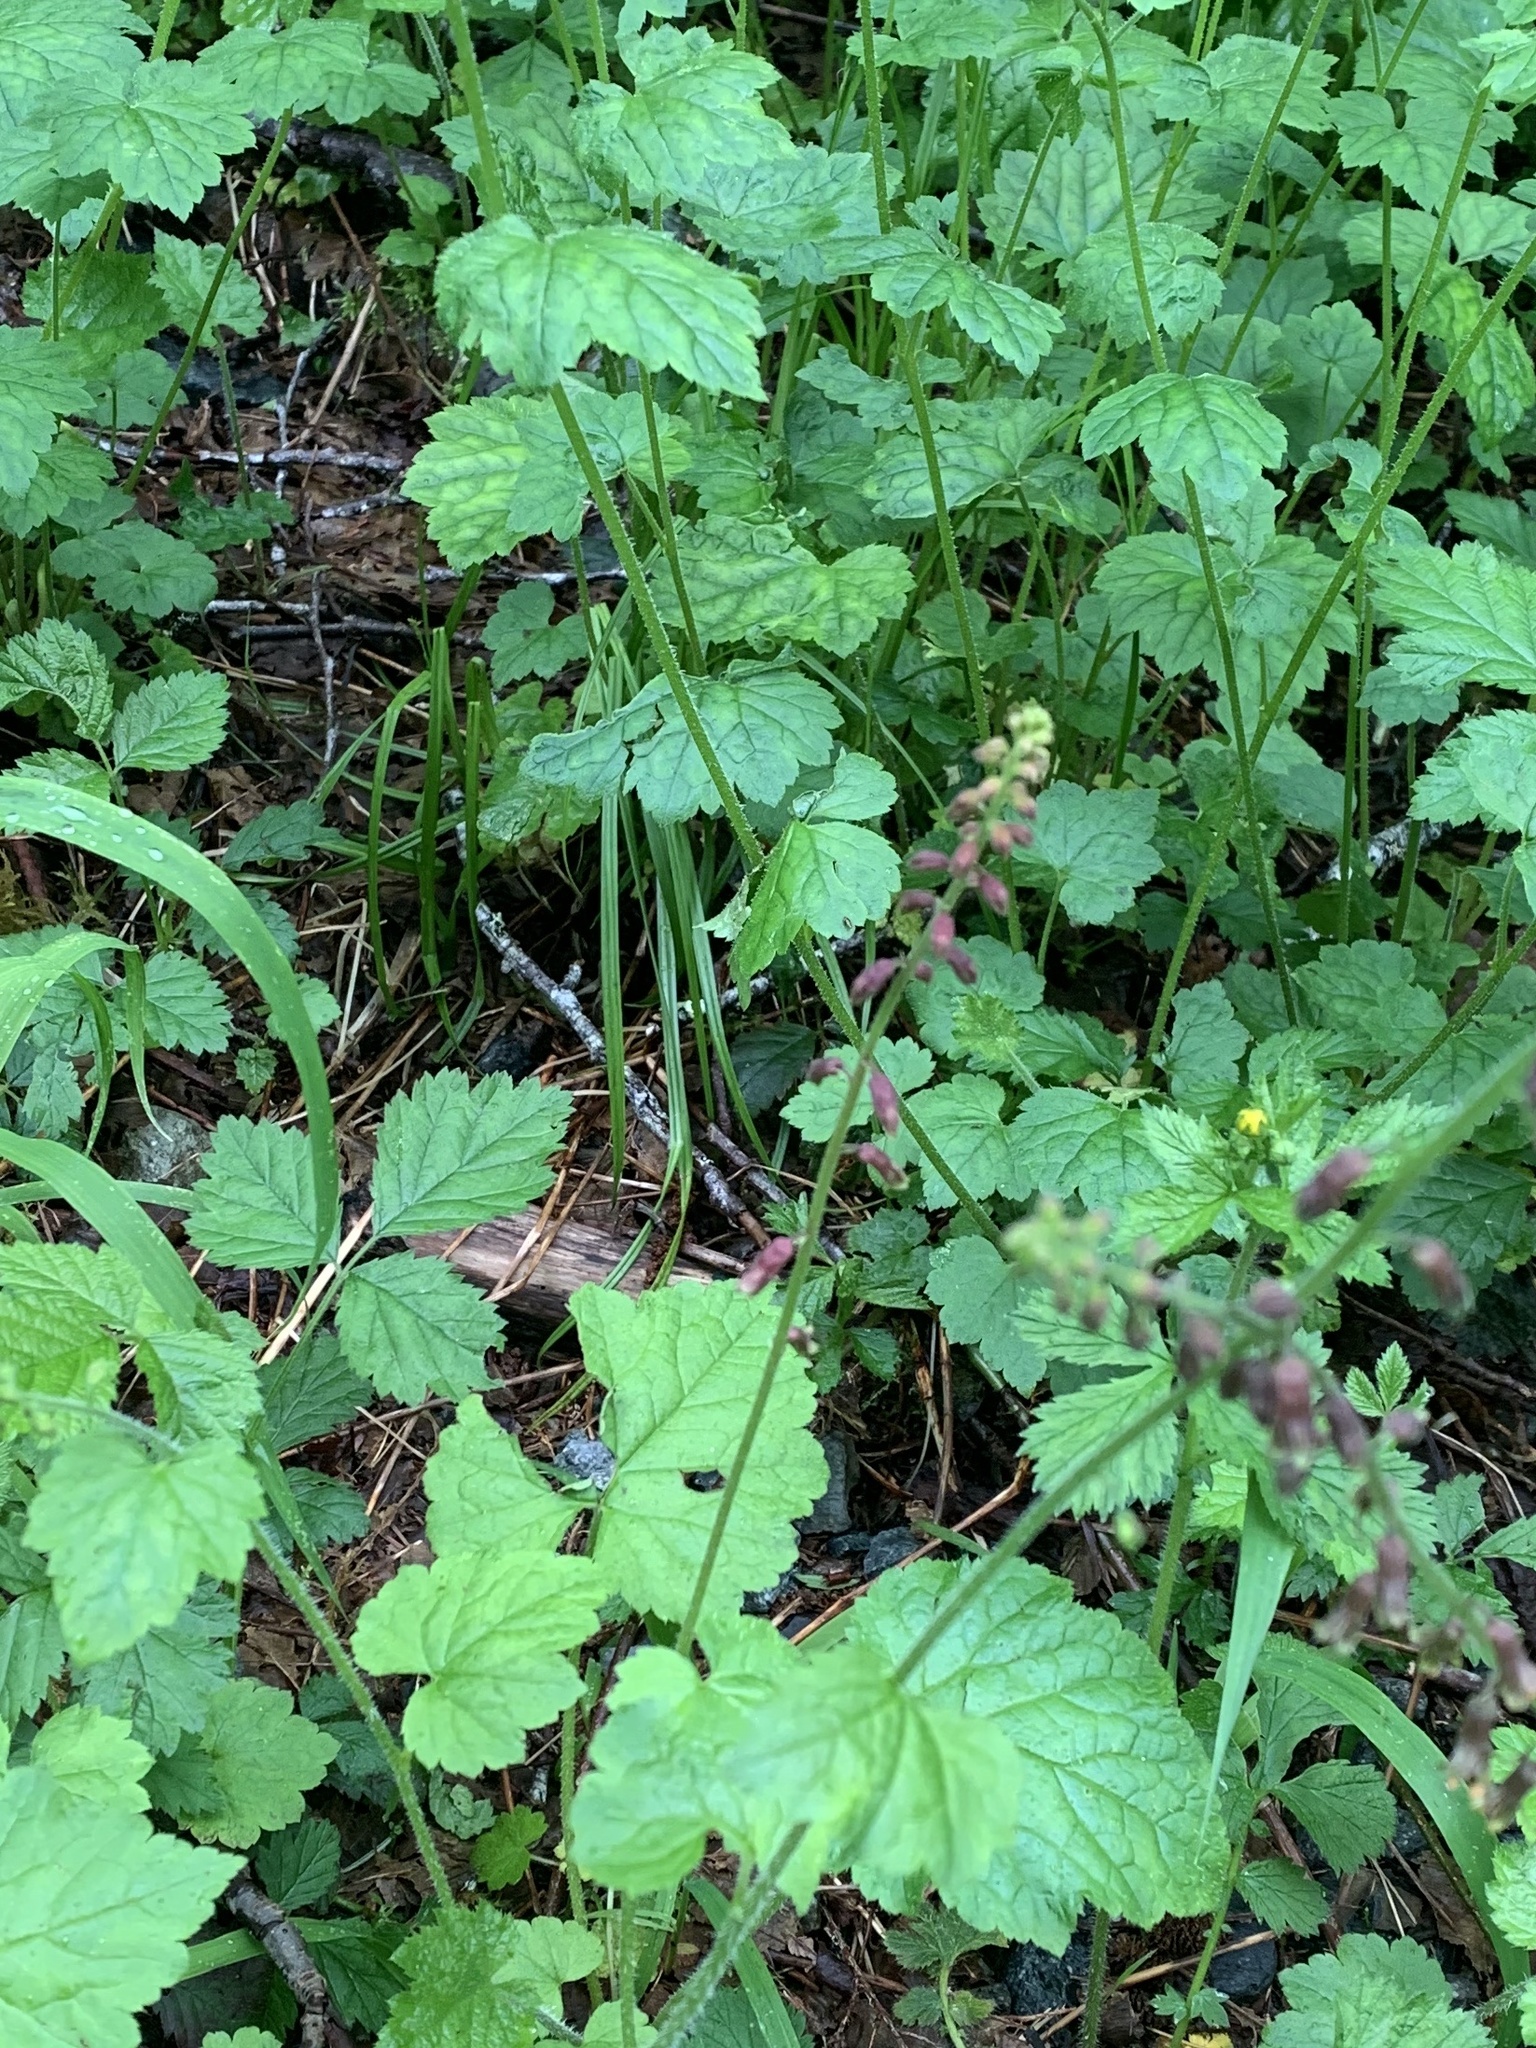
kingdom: Plantae
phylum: Tracheophyta
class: Magnoliopsida
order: Saxifragales
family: Saxifragaceae
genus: Tolmiea
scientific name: Tolmiea menziesii
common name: Pick-a-back-plant
